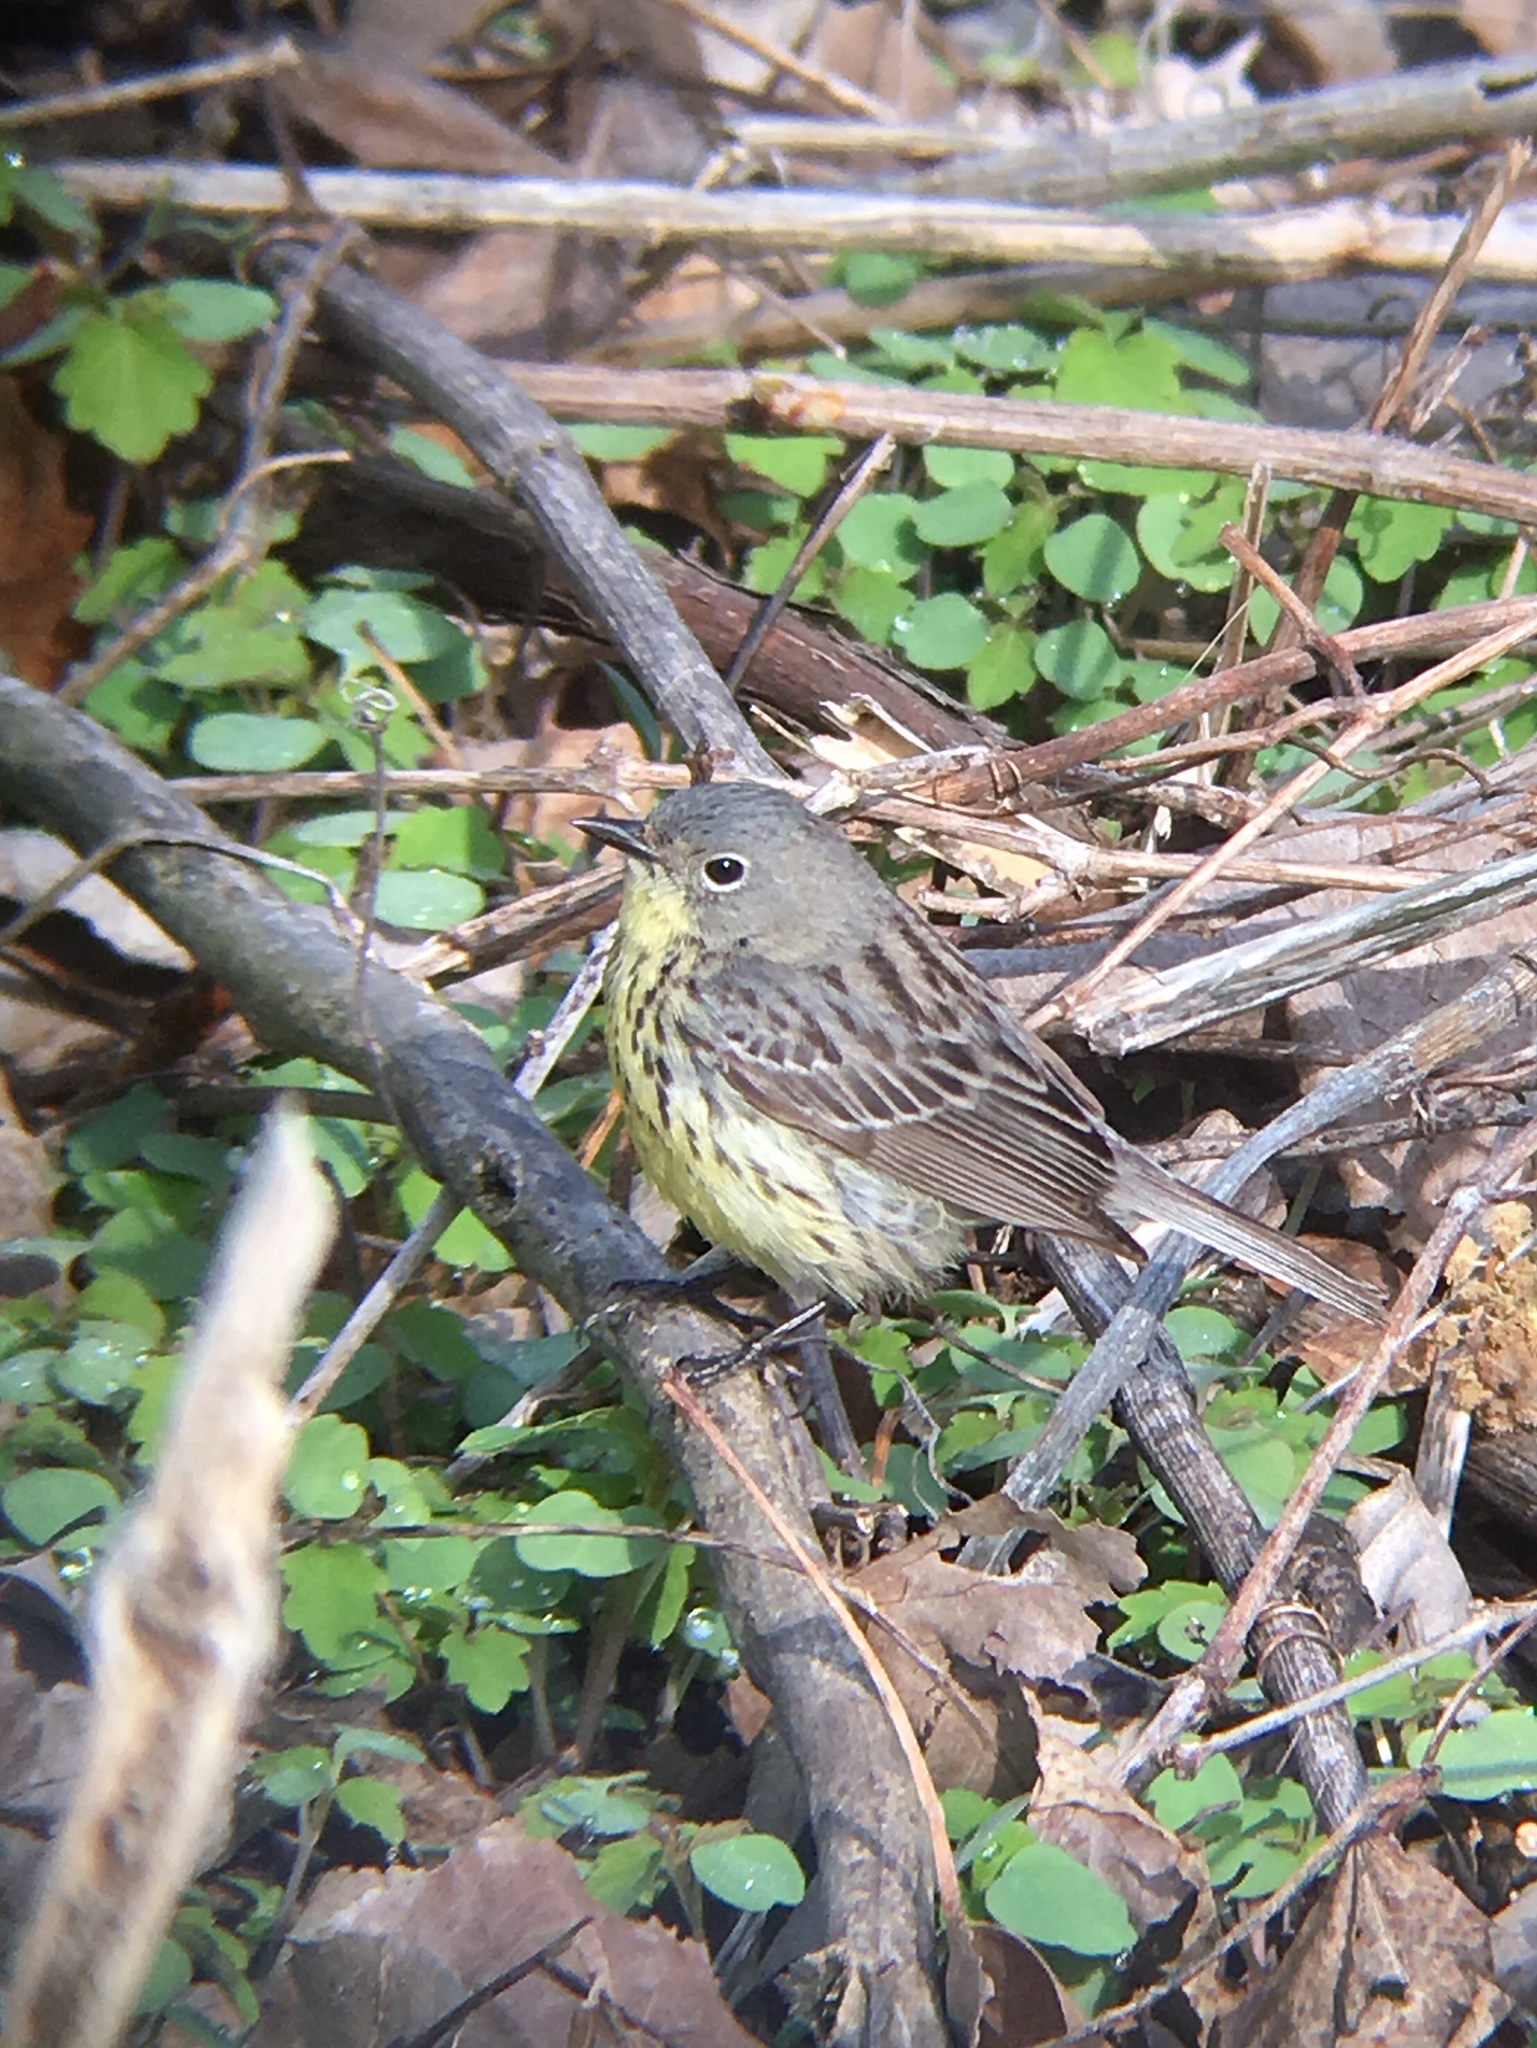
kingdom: Animalia
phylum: Chordata
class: Aves
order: Passeriformes
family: Parulidae
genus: Setophaga
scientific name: Setophaga kirtlandii
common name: Kirtland's warbler
